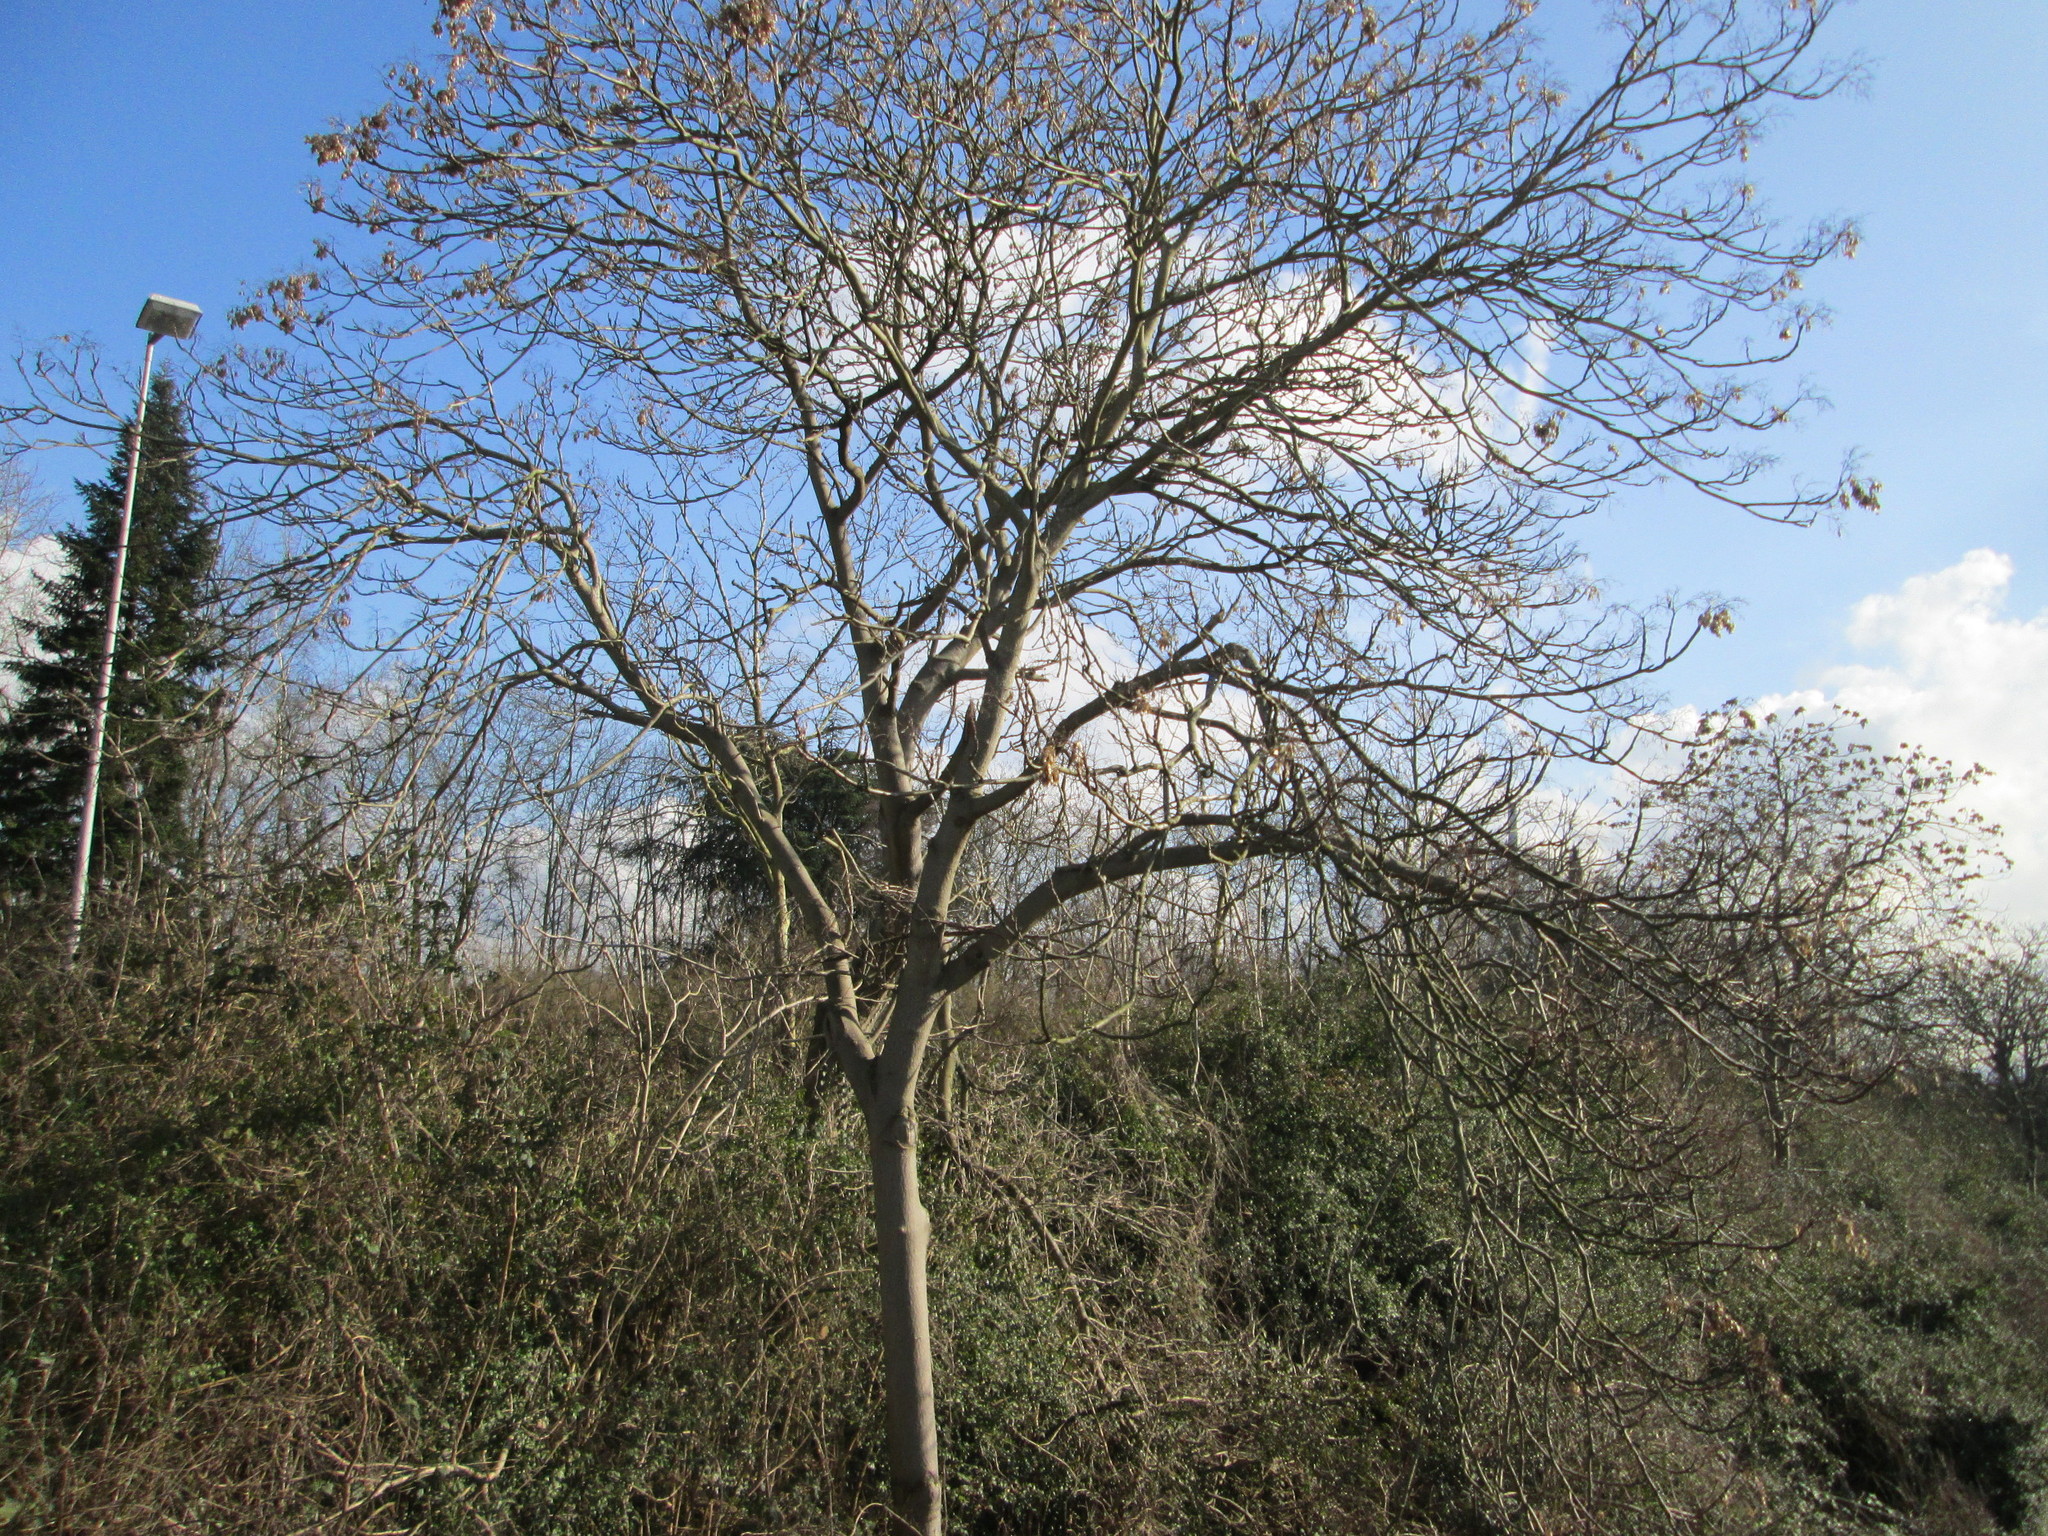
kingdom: Plantae
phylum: Tracheophyta
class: Magnoliopsida
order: Sapindales
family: Simaroubaceae
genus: Ailanthus
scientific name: Ailanthus altissima
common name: Tree-of-heaven
